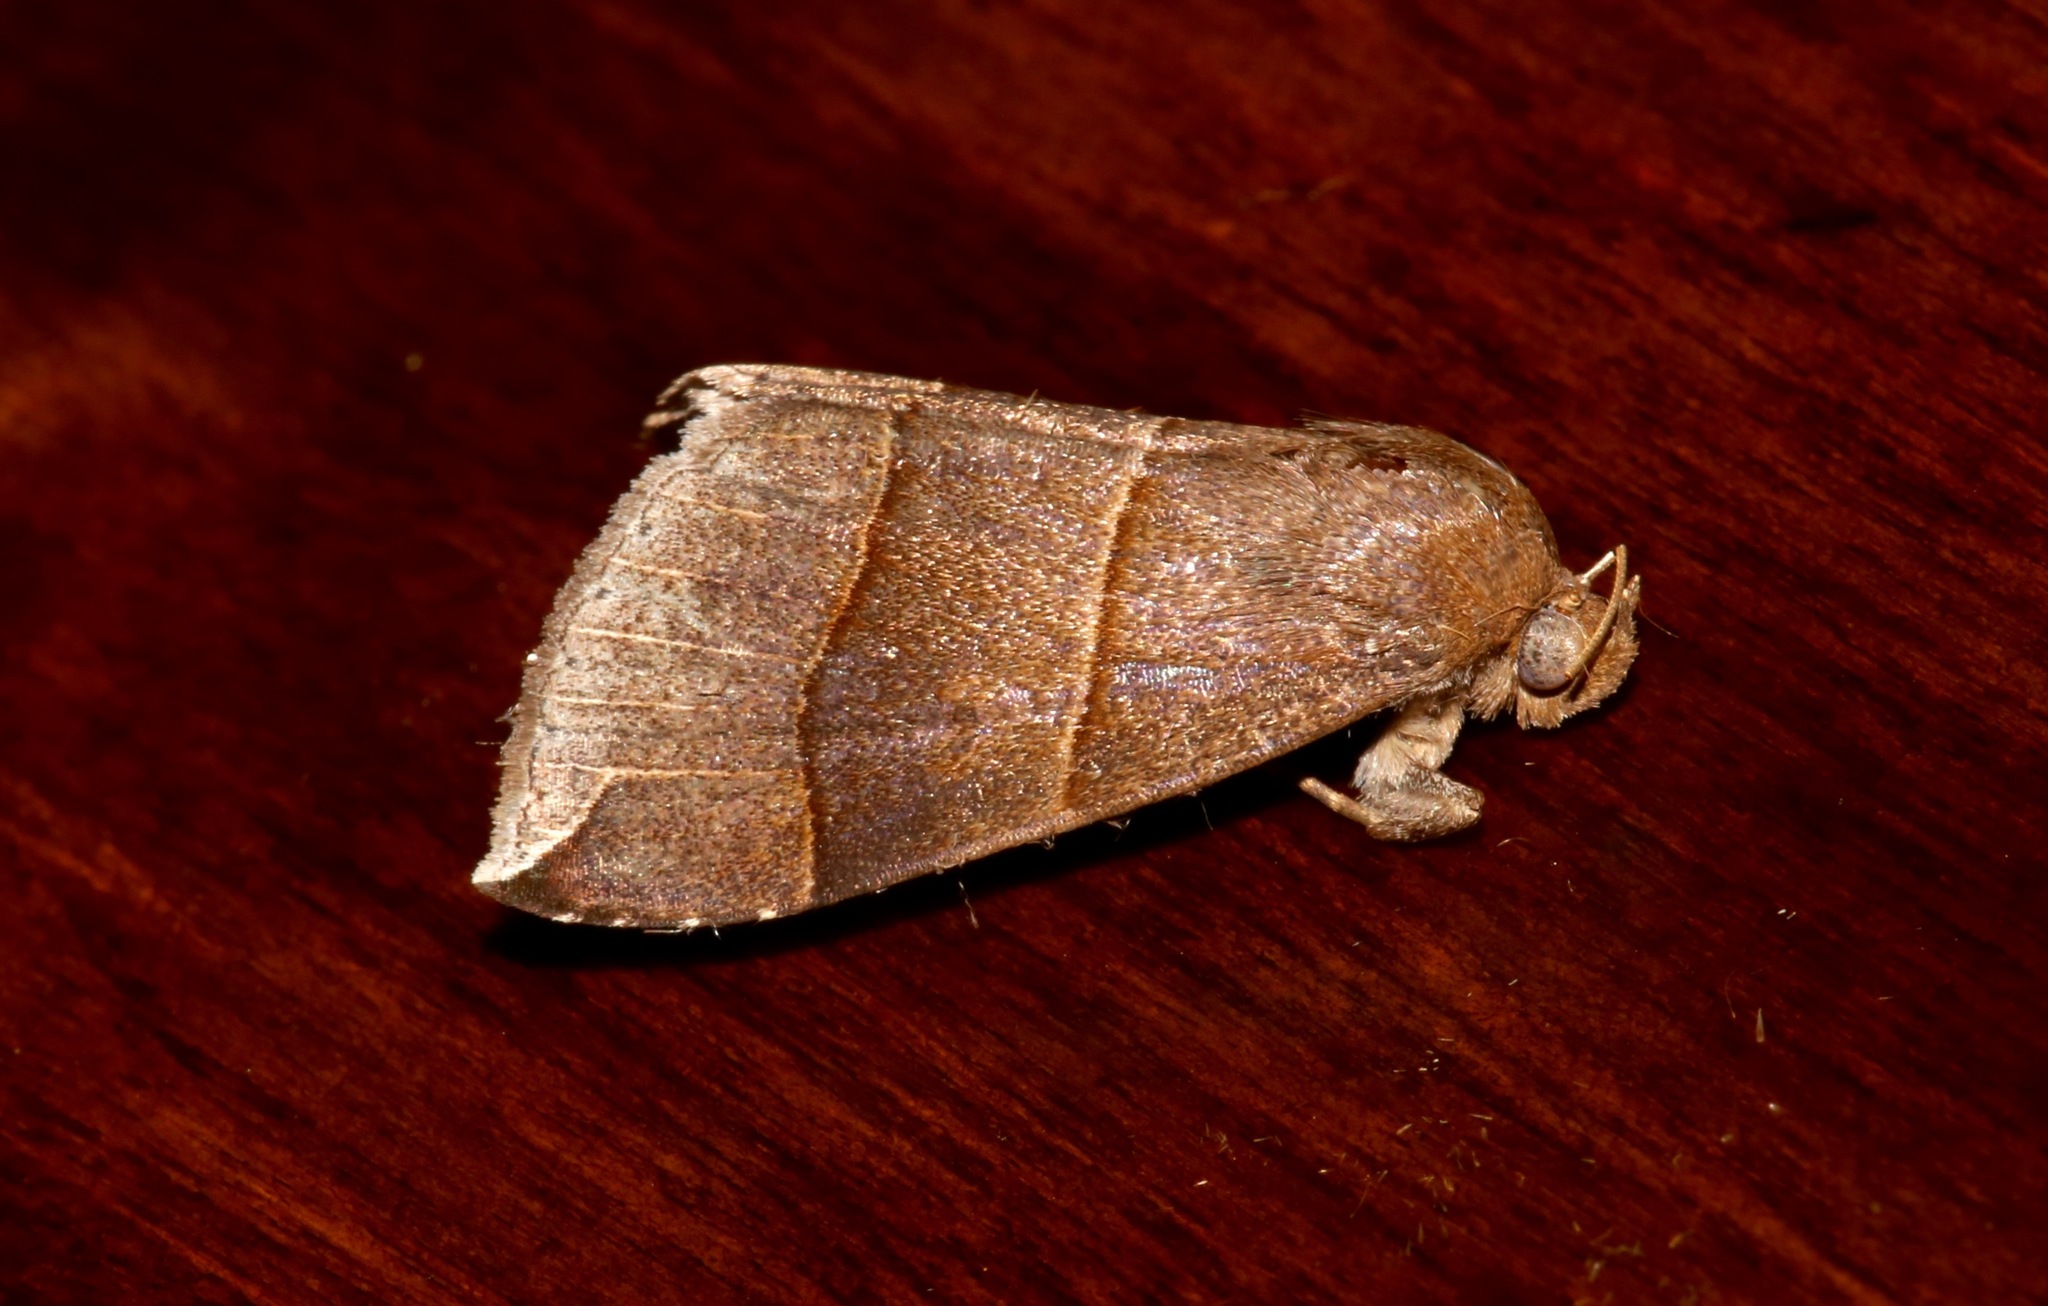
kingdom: Animalia
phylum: Arthropoda
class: Insecta
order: Lepidoptera
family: Erebidae
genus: Parallelia
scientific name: Parallelia bistriaris
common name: Maple looper moth
